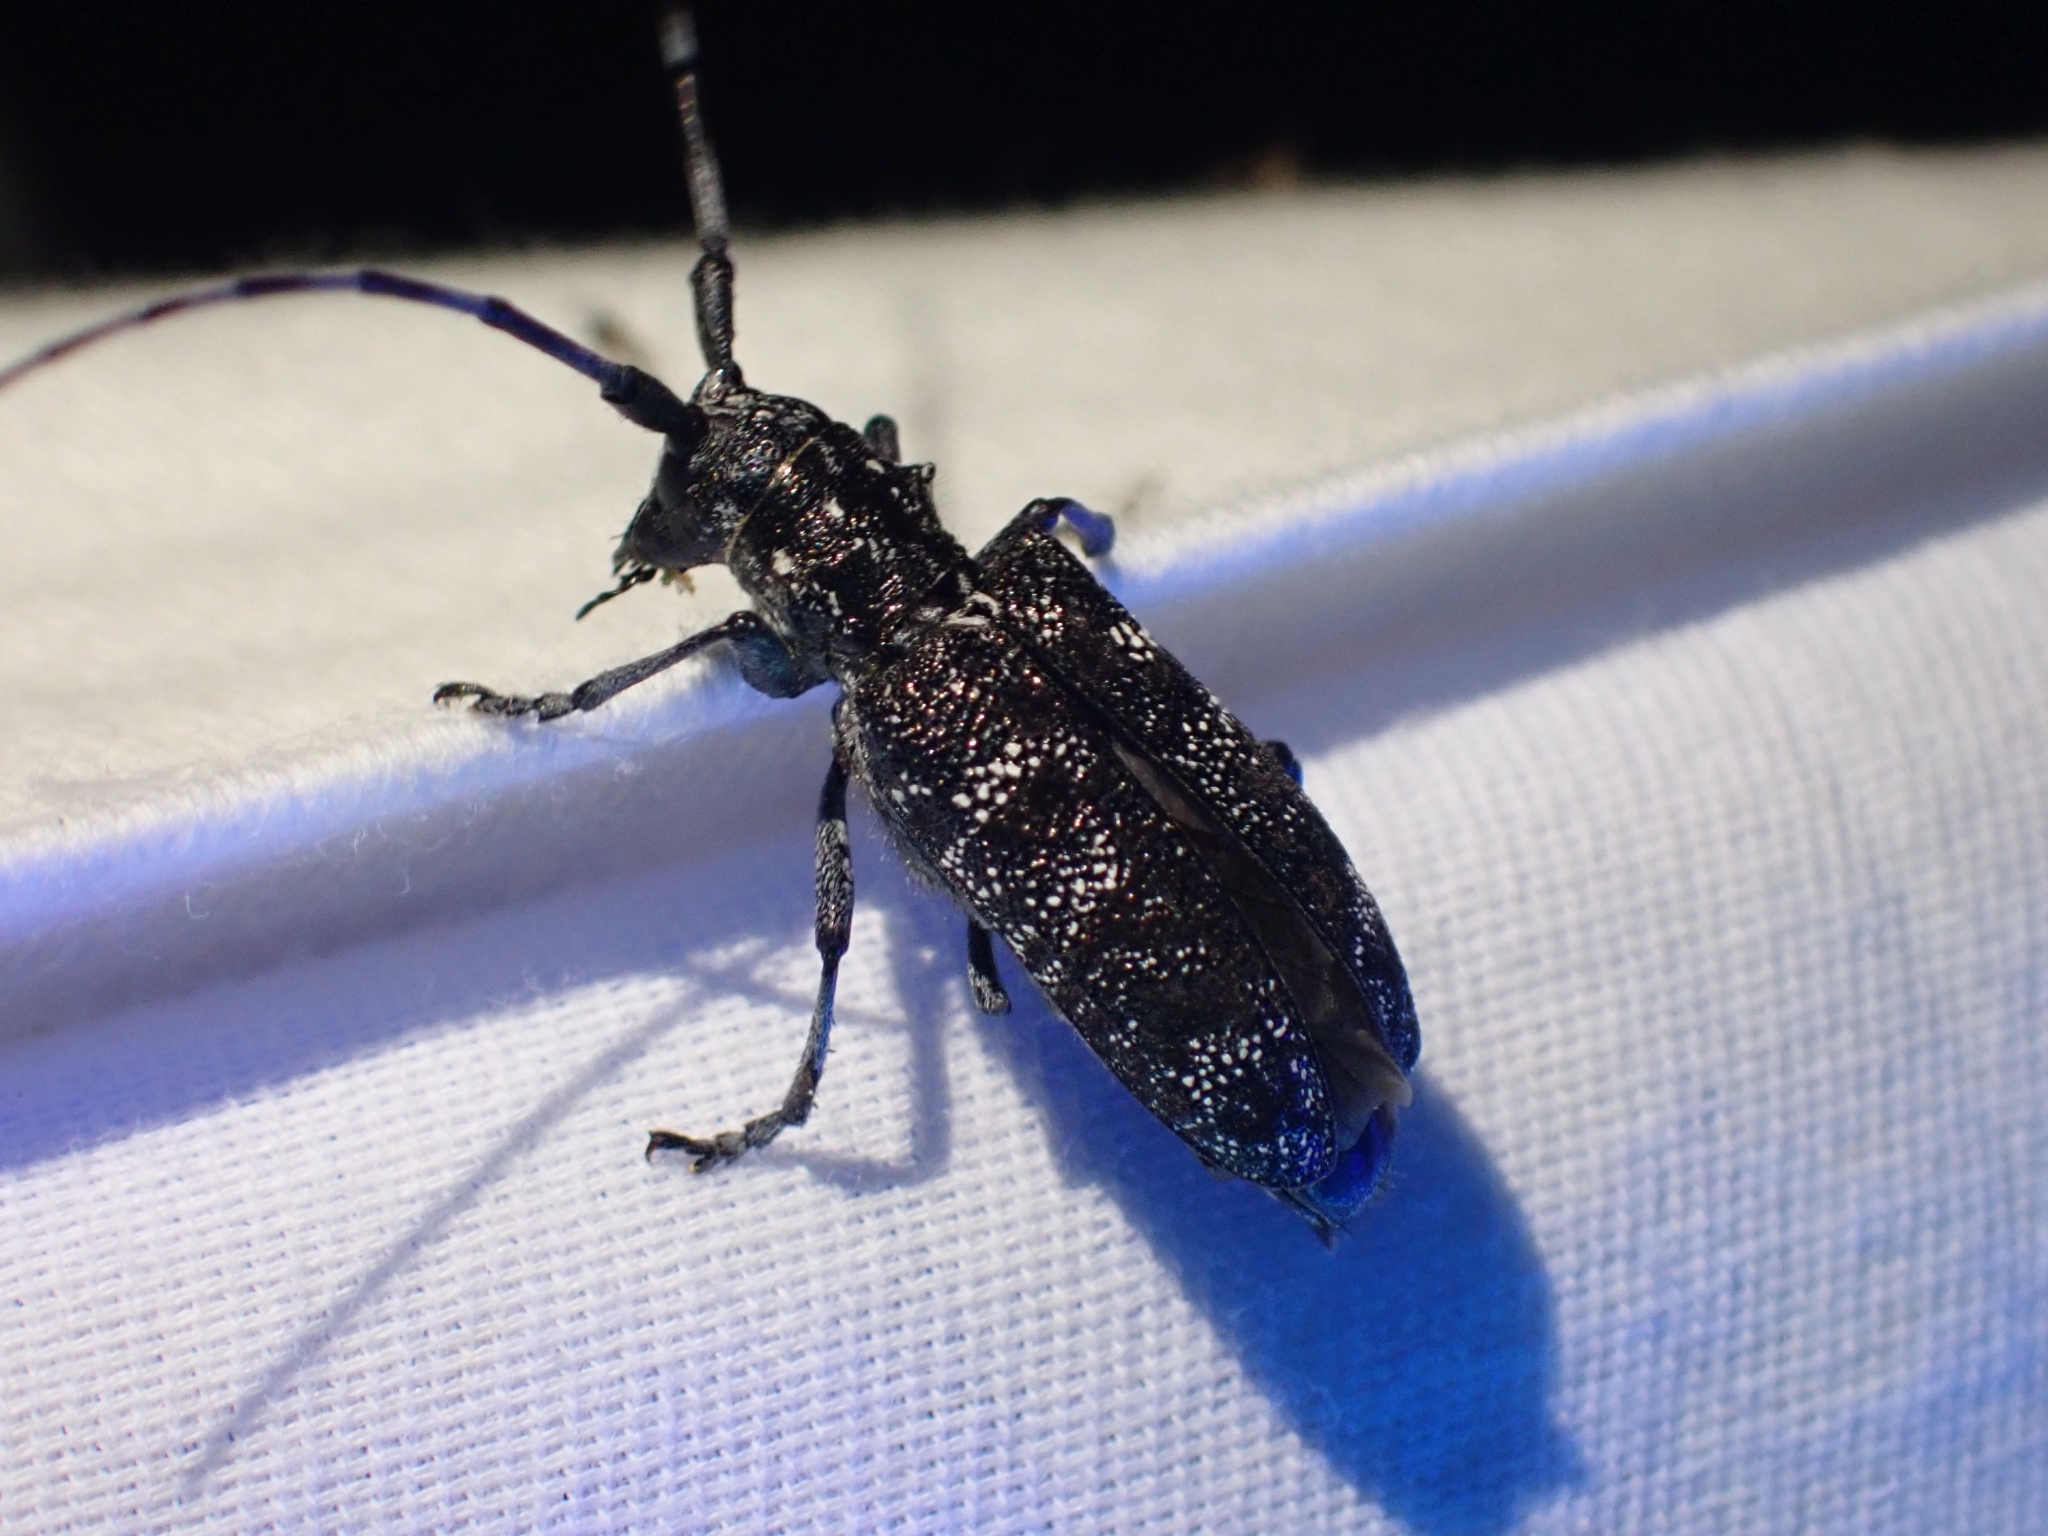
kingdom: Animalia
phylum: Arthropoda
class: Insecta
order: Coleoptera
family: Cerambycidae
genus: Monochamus
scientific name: Monochamus clamator
